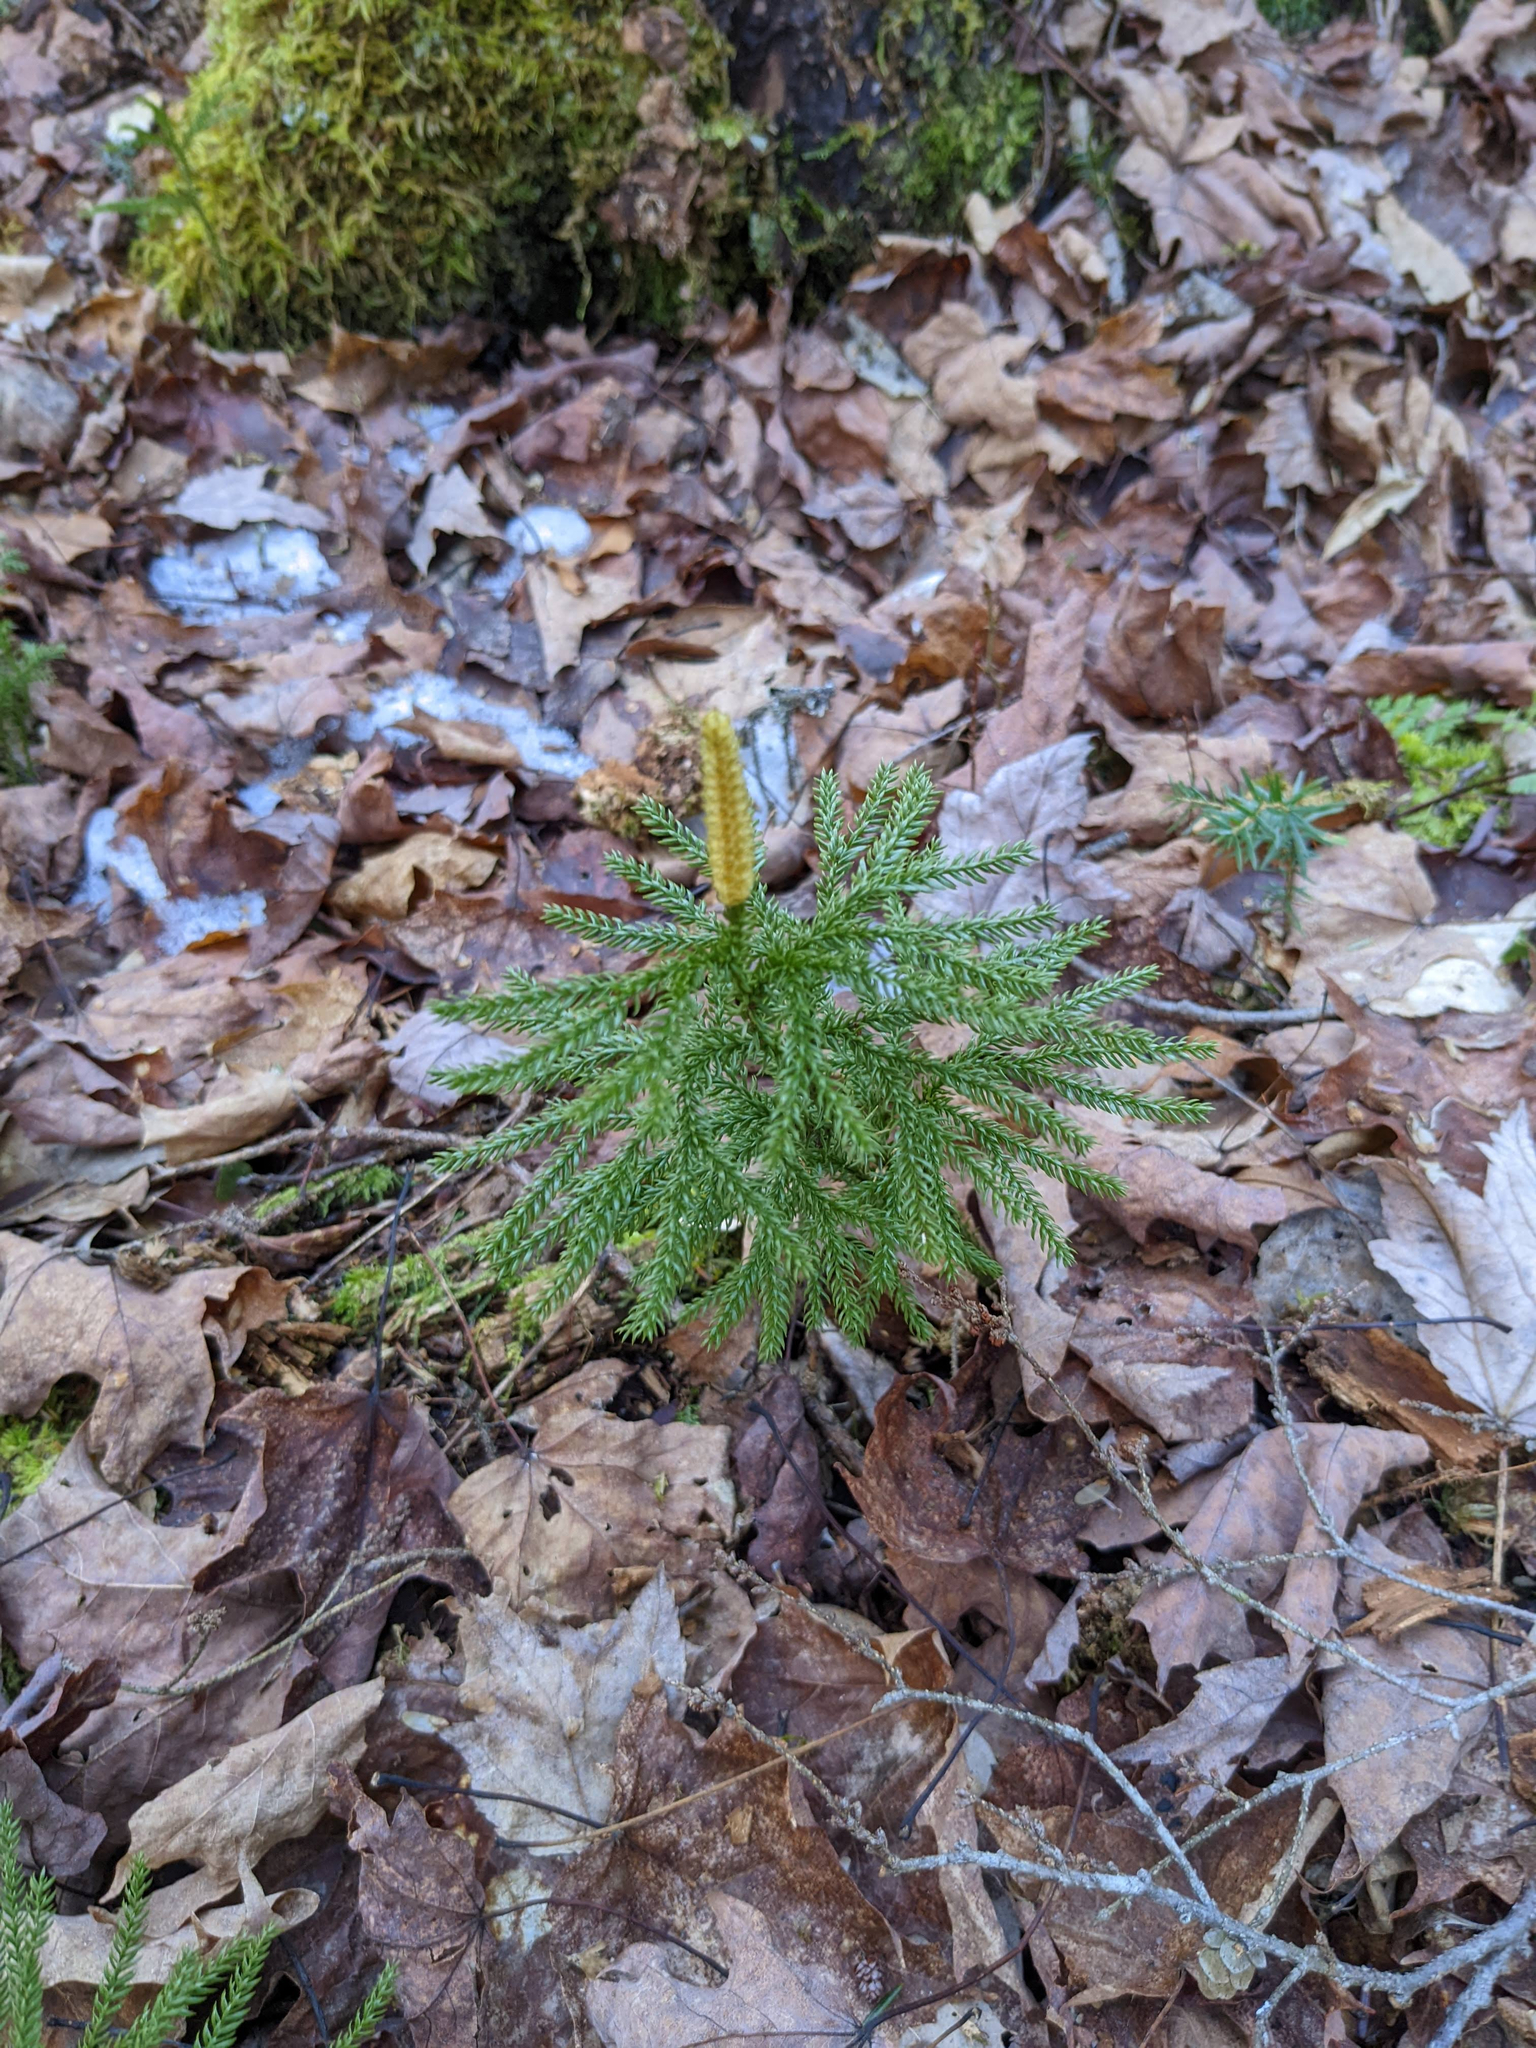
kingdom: Plantae
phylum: Tracheophyta
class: Lycopodiopsida
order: Lycopodiales
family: Lycopodiaceae
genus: Dendrolycopodium
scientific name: Dendrolycopodium obscurum
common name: Common ground-pine
